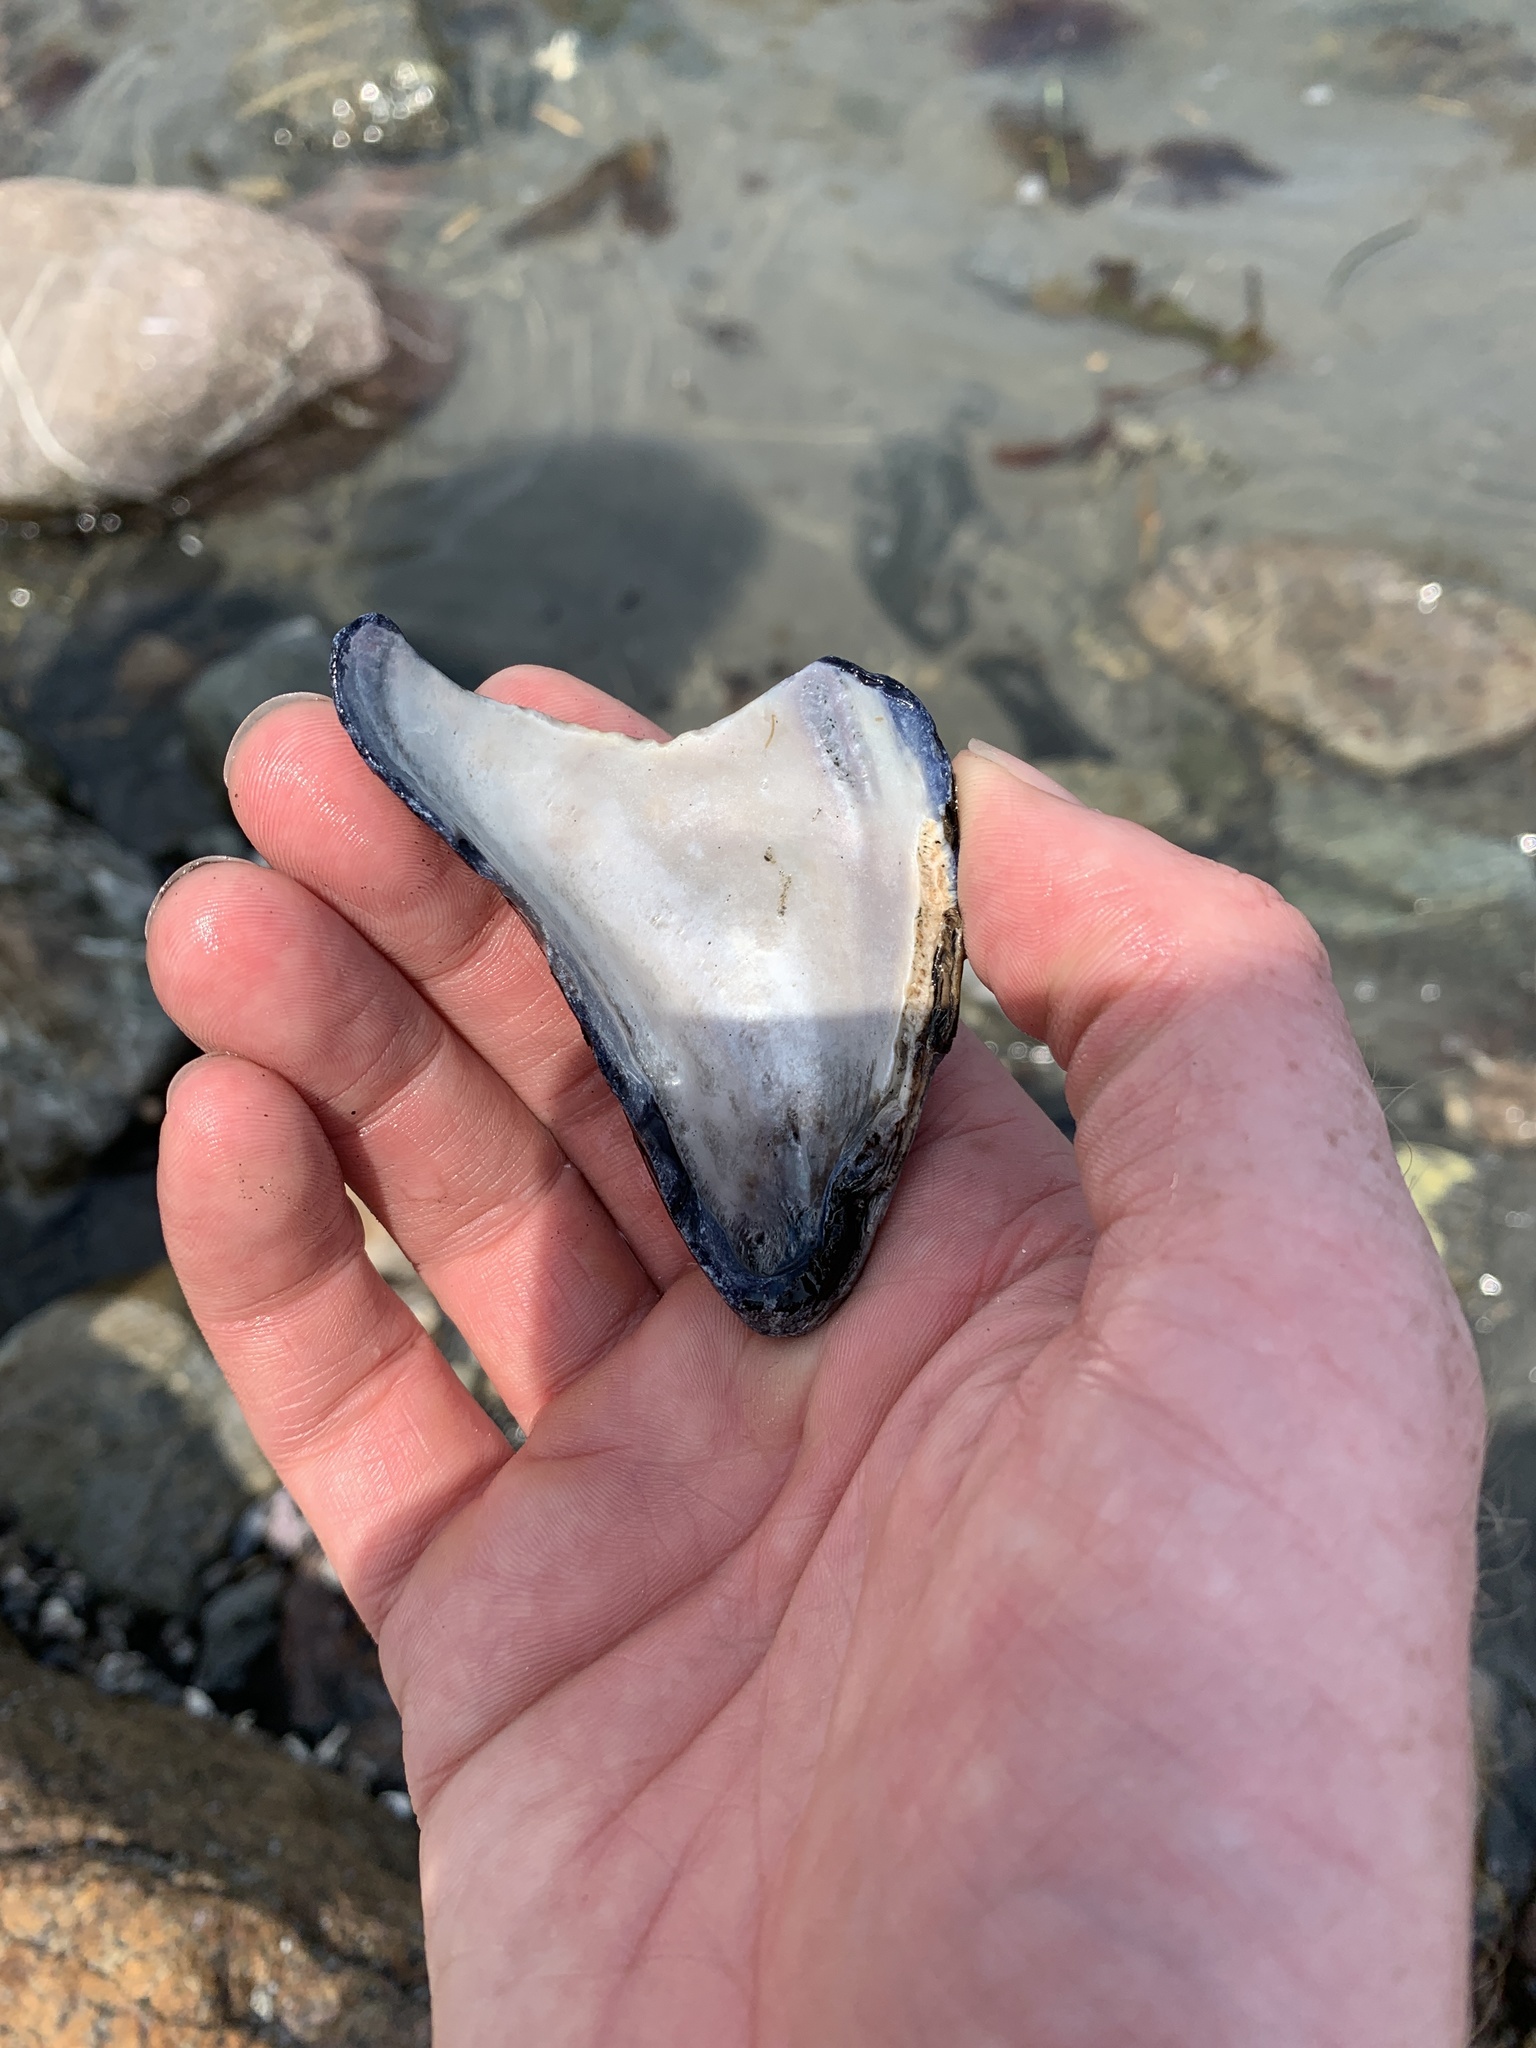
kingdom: Animalia
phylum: Mollusca
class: Bivalvia
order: Mytilida
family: Mytilidae
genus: Mytilus
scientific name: Mytilus edulis
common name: Blue mussel
